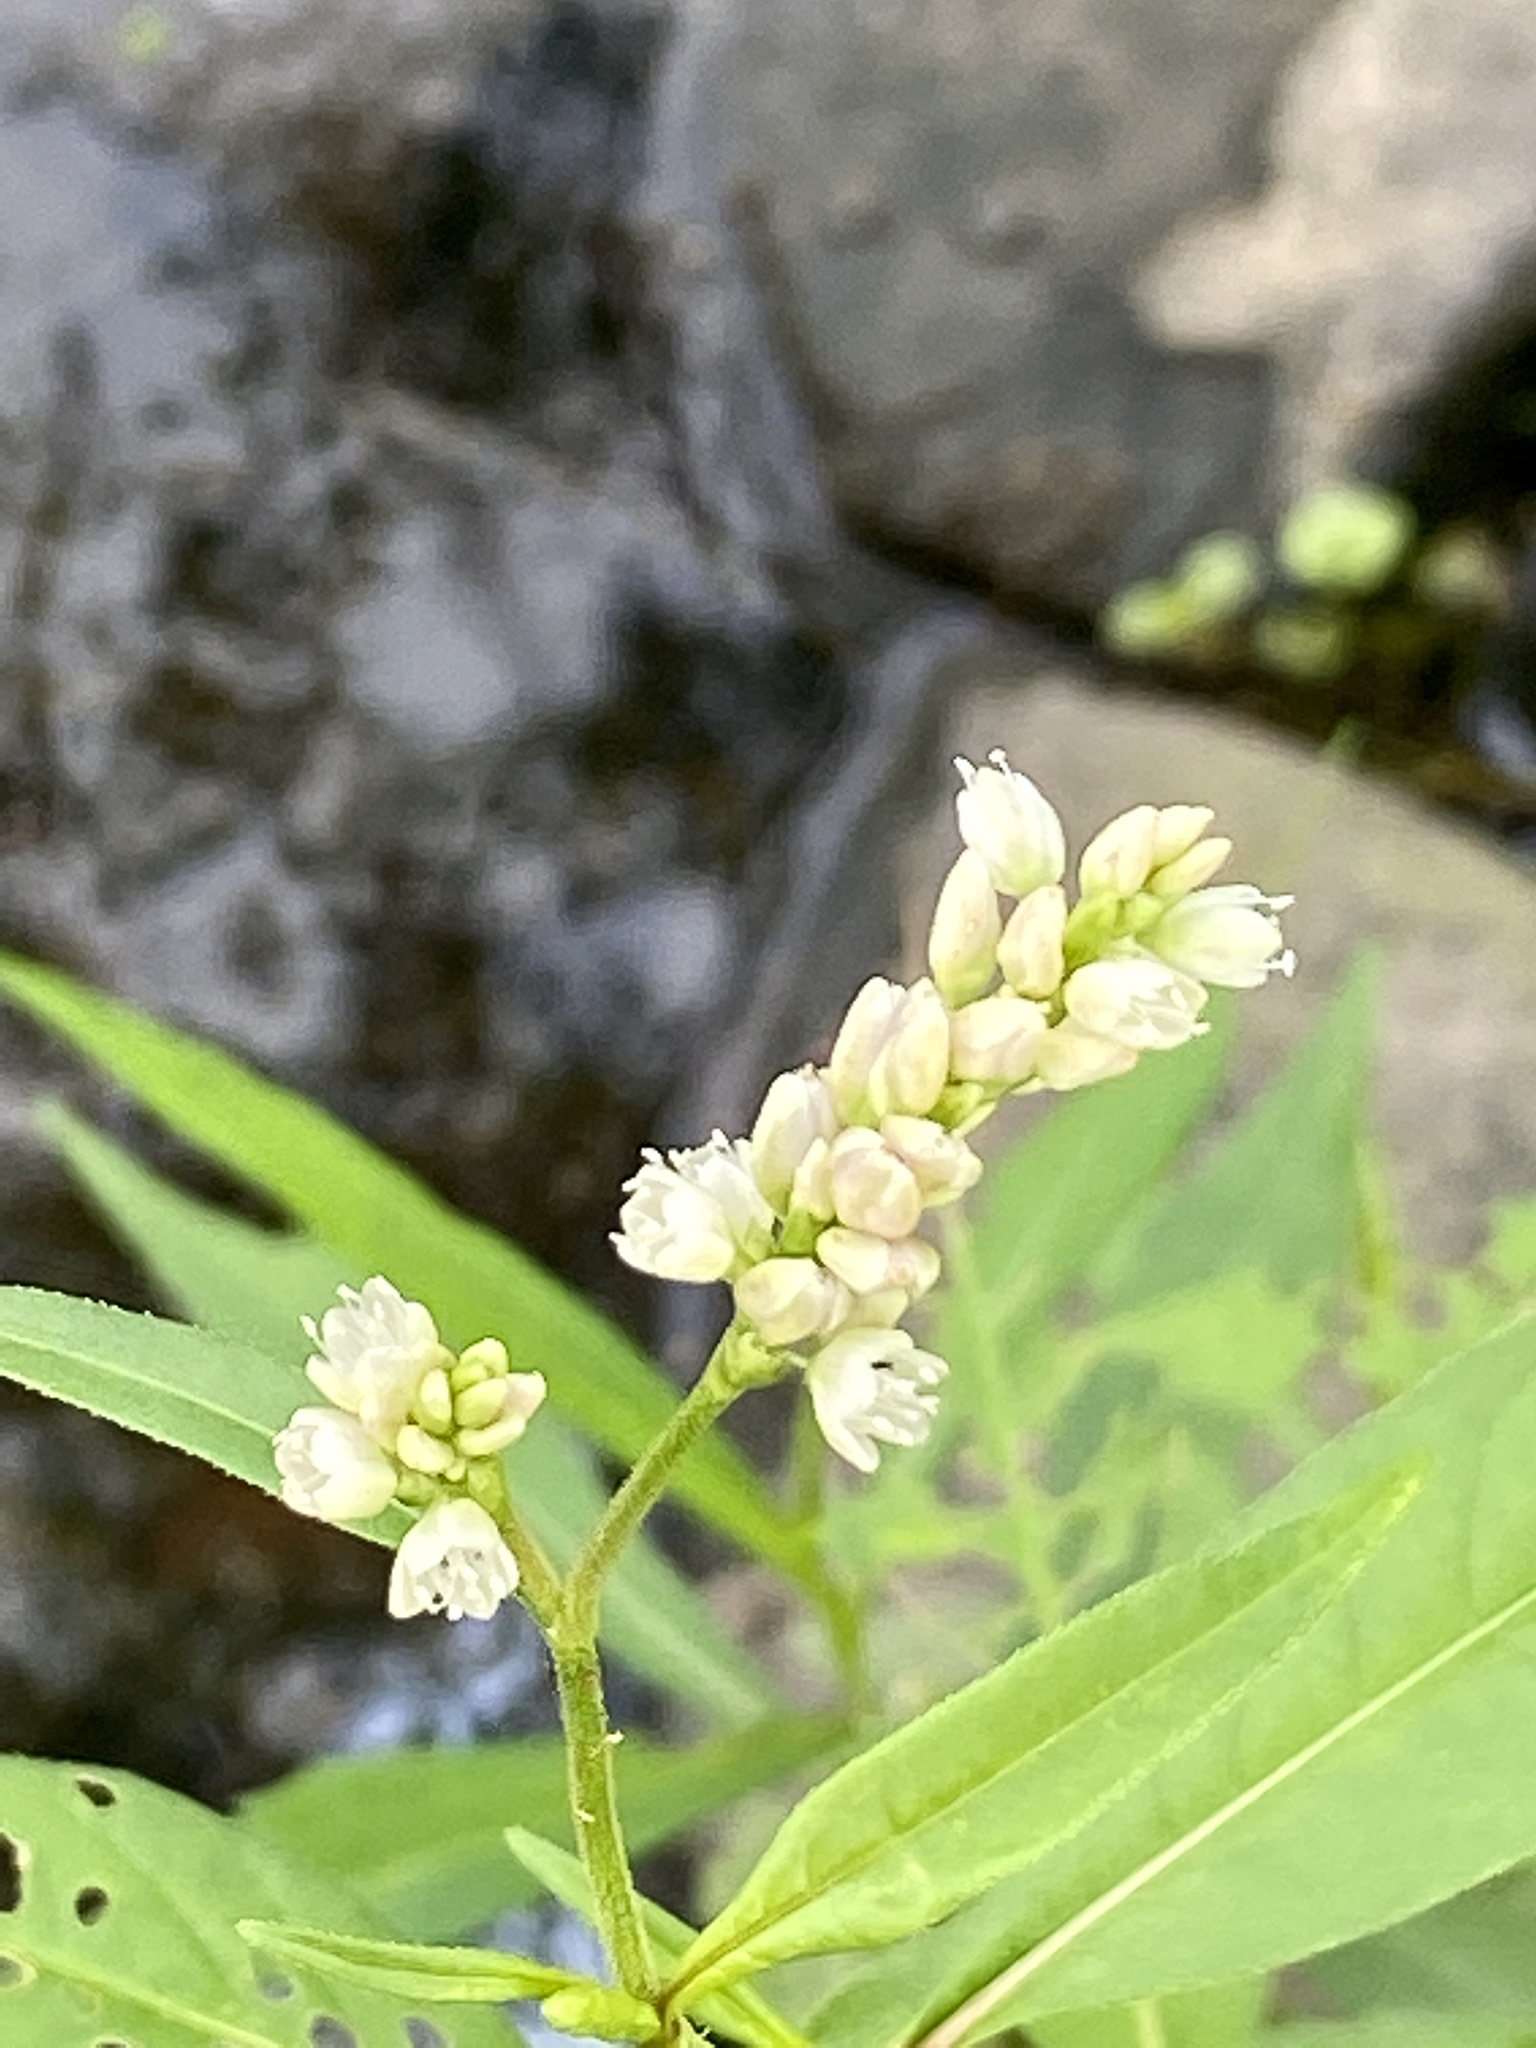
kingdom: Plantae
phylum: Tracheophyta
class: Magnoliopsida
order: Caryophyllales
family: Polygonaceae
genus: Persicaria
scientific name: Persicaria pensylvanica
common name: Pinkweed
